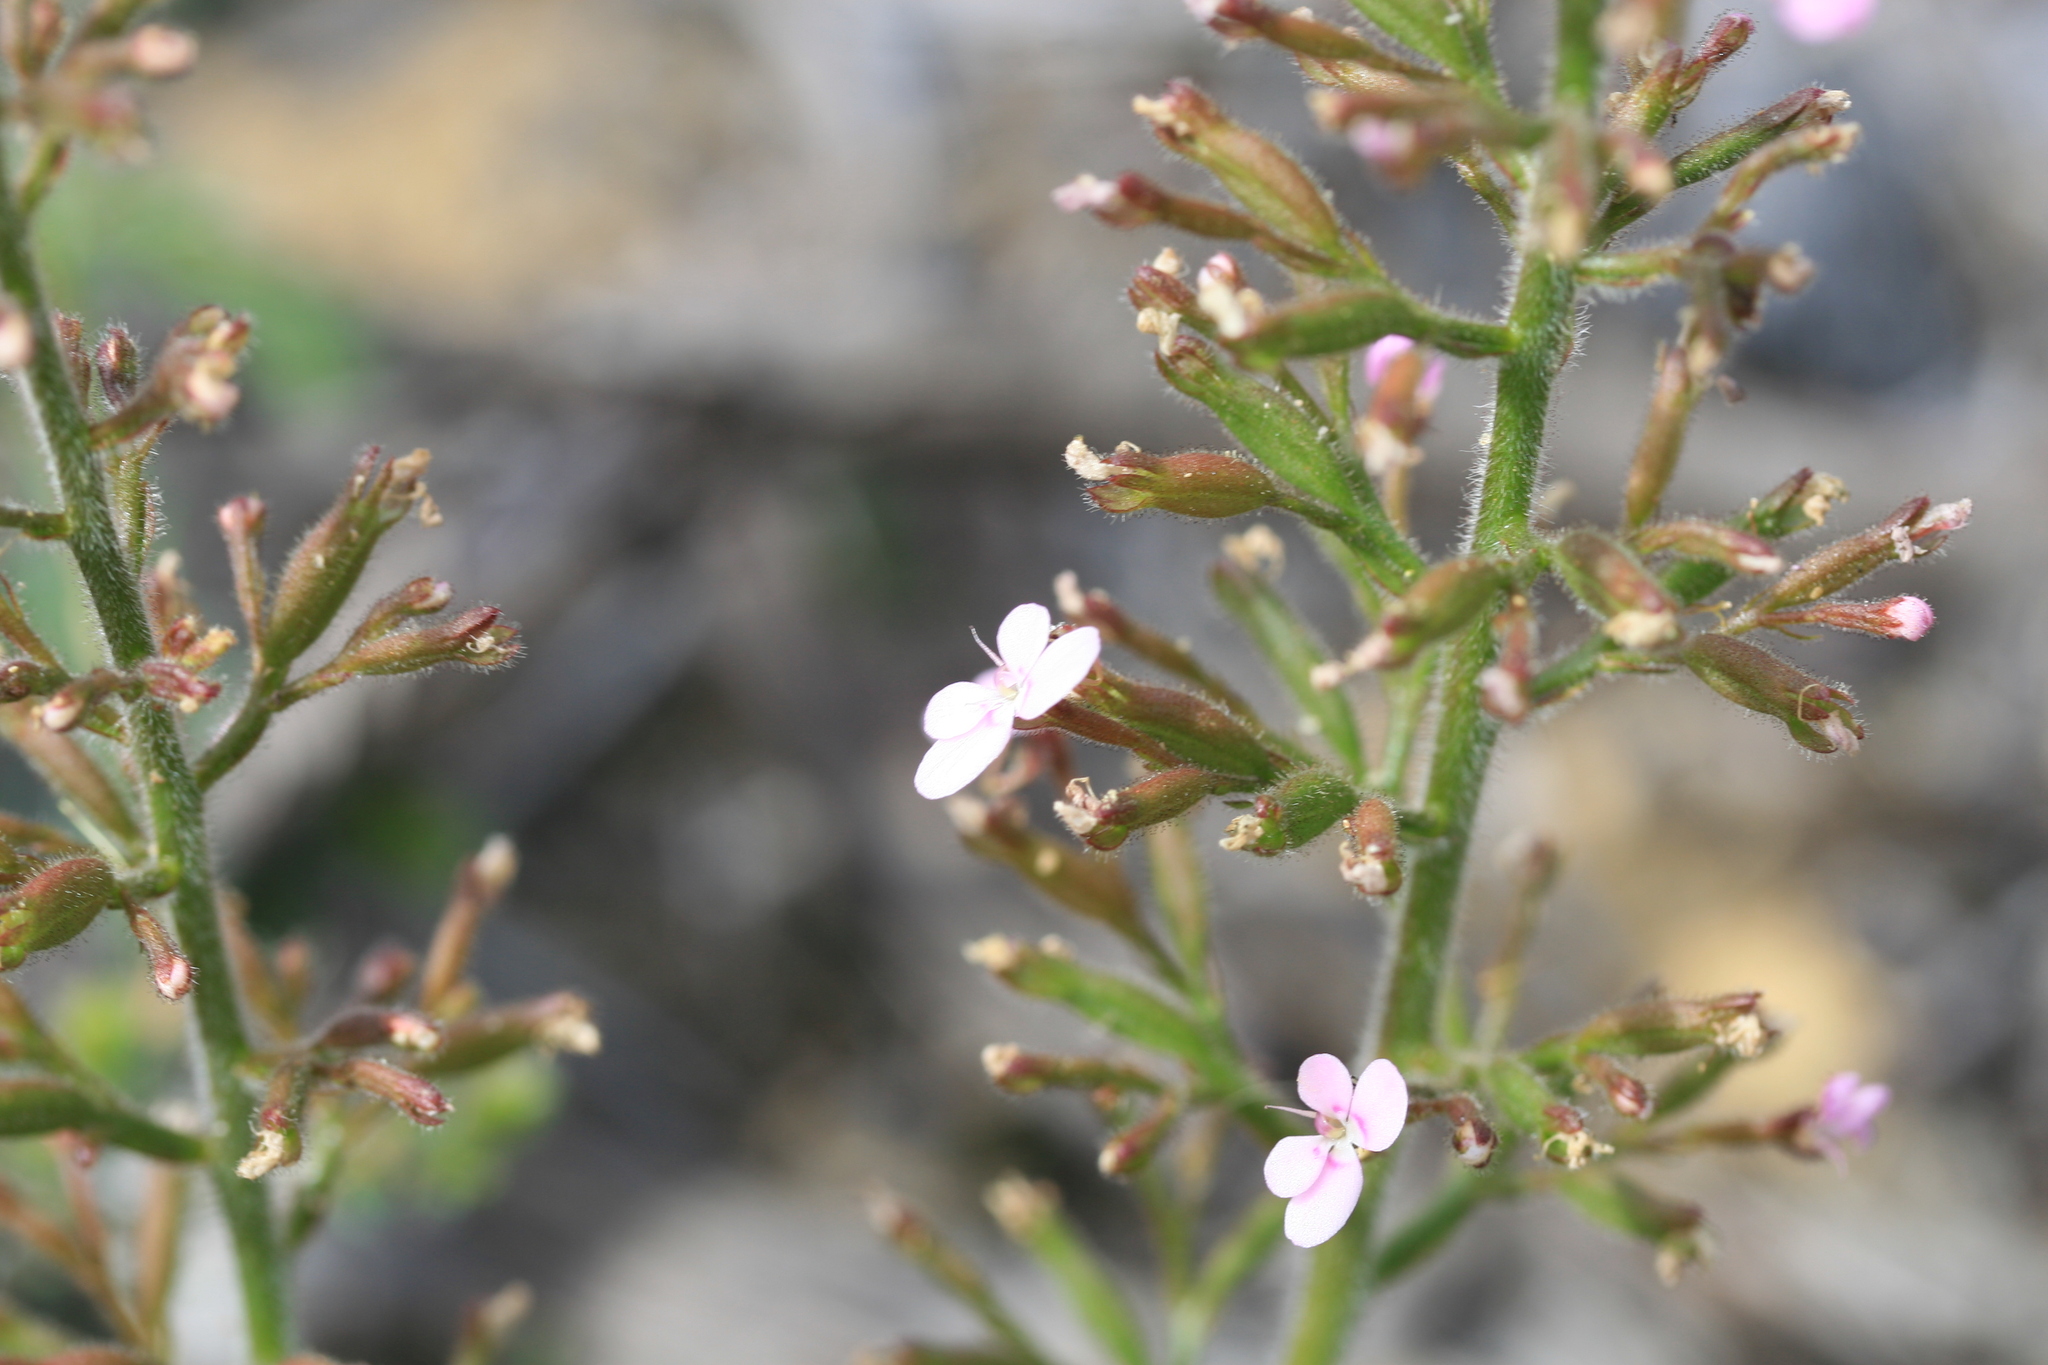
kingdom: Plantae
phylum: Tracheophyta
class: Magnoliopsida
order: Asterales
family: Stylidiaceae
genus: Stylidium
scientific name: Stylidium elongatum
